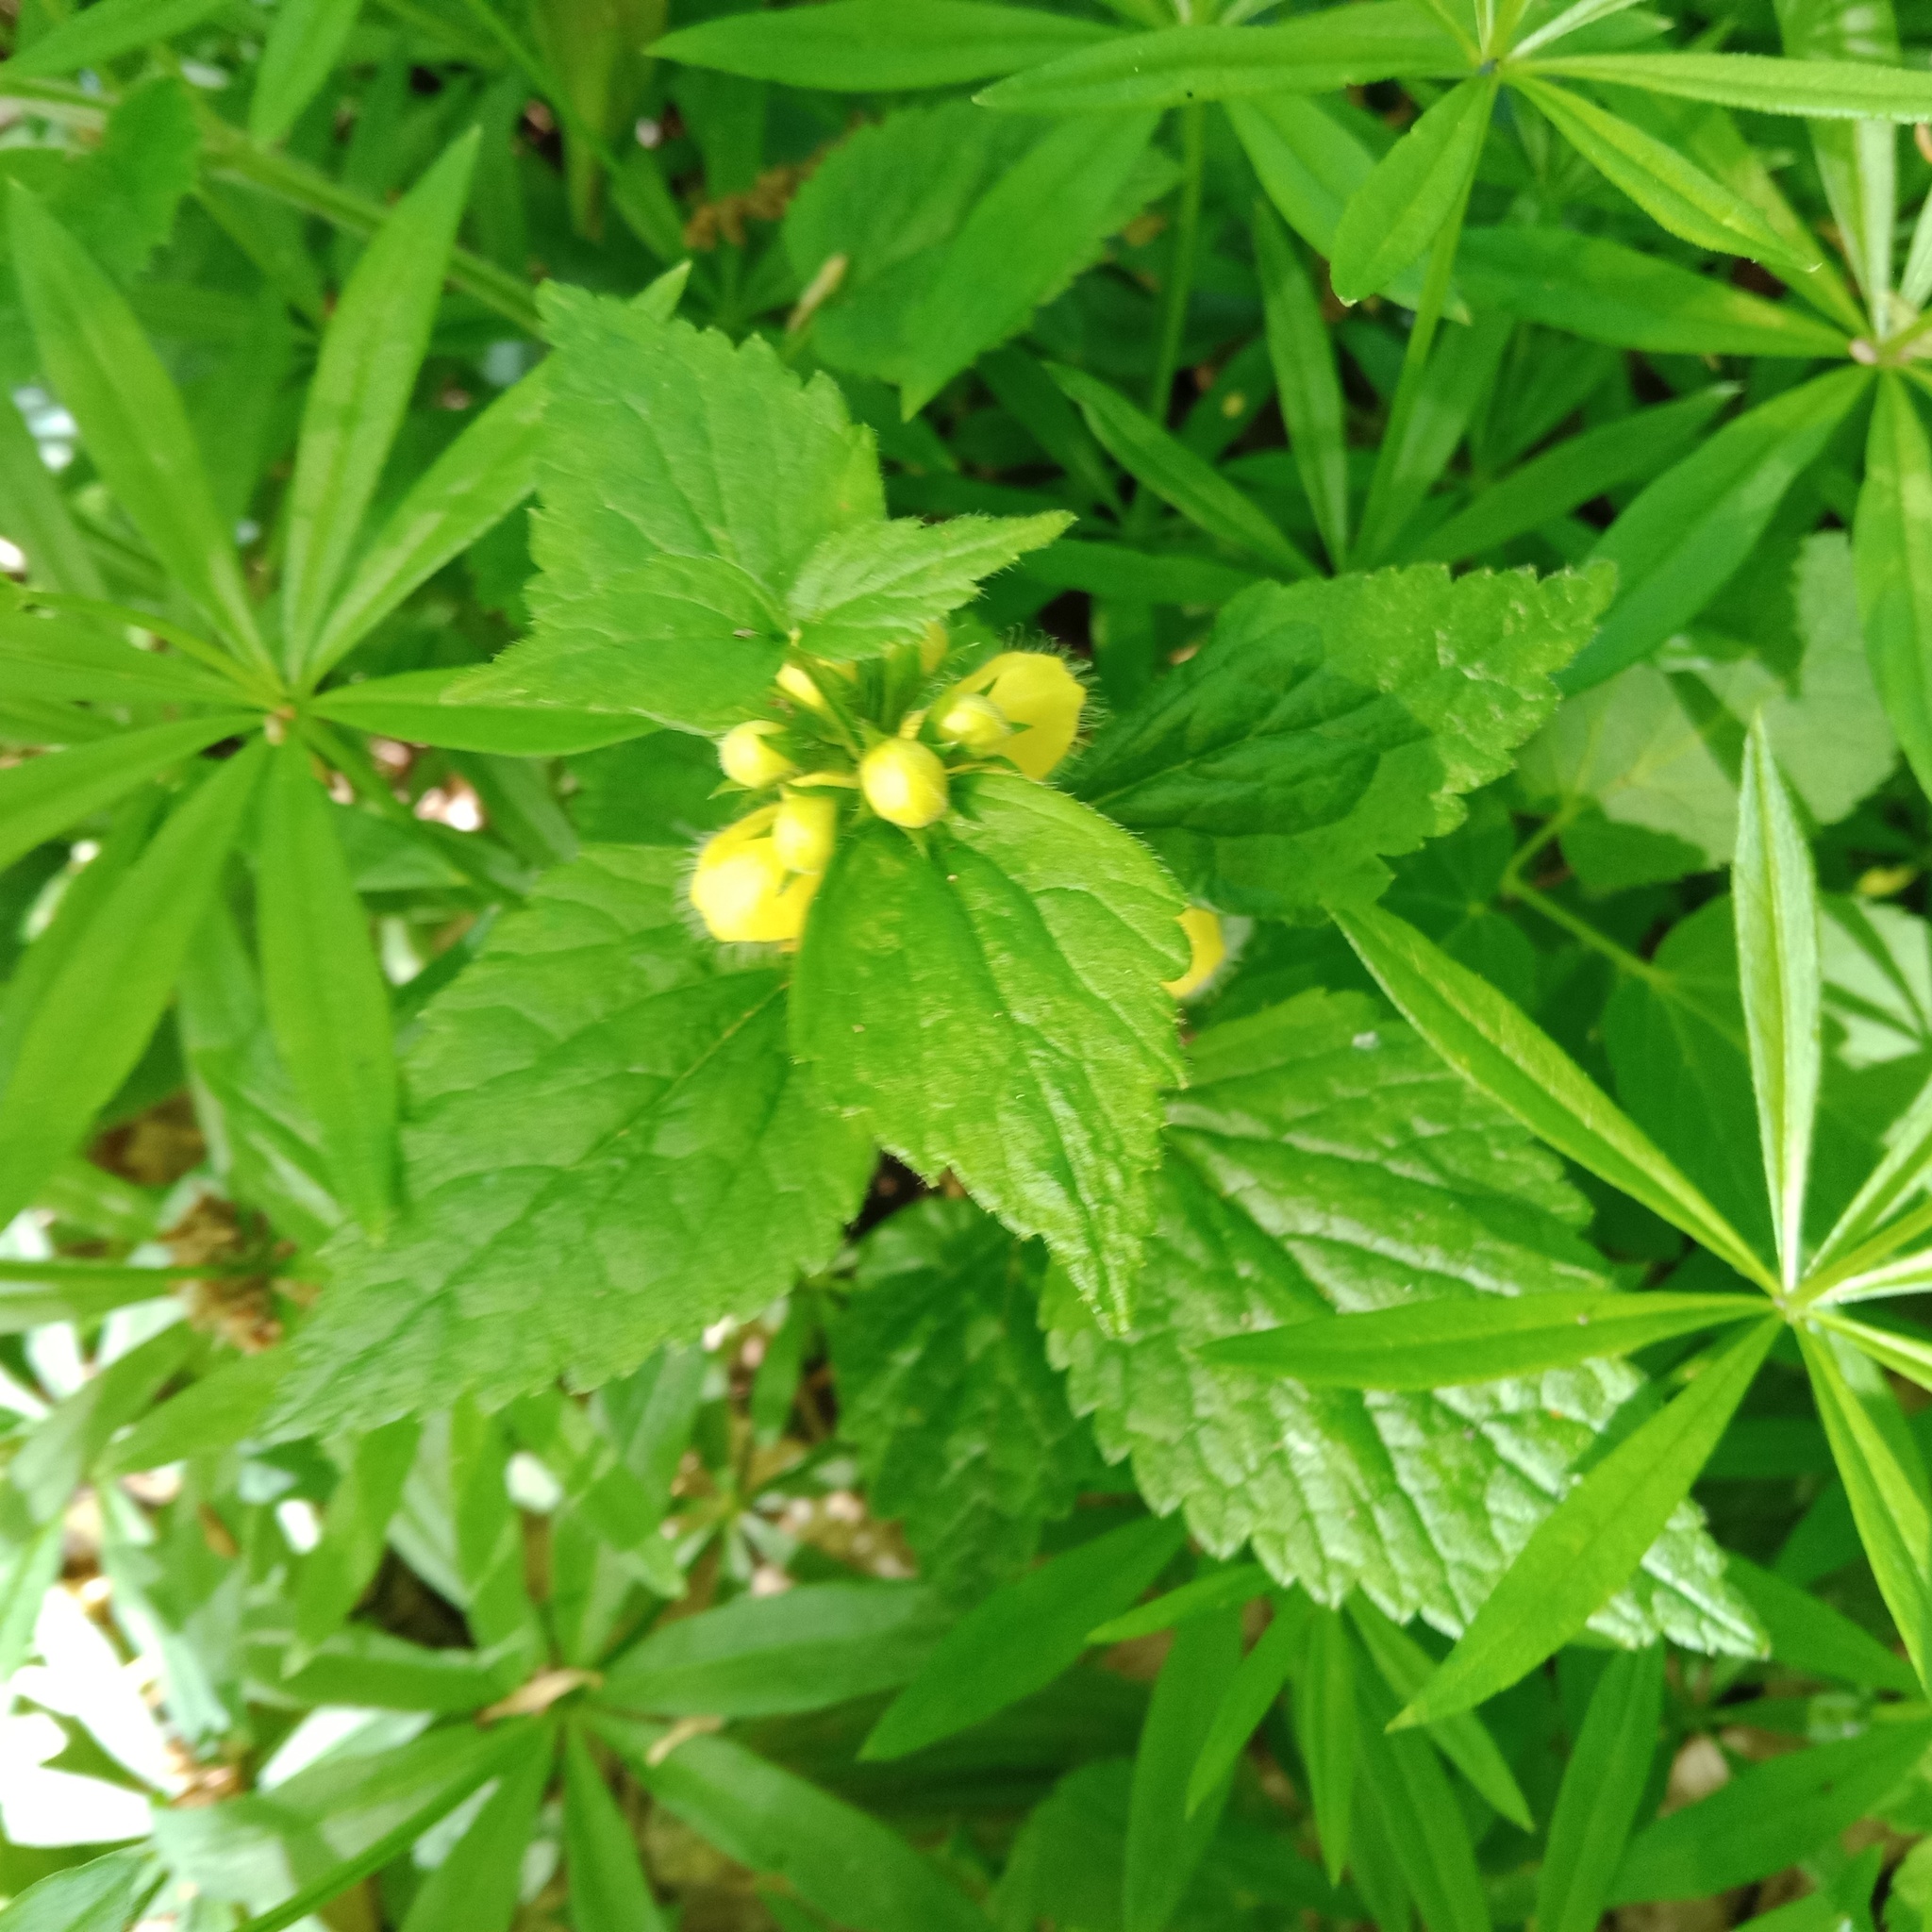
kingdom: Plantae
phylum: Tracheophyta
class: Magnoliopsida
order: Lamiales
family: Lamiaceae
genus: Lamium
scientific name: Lamium galeobdolon
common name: Yellow archangel
